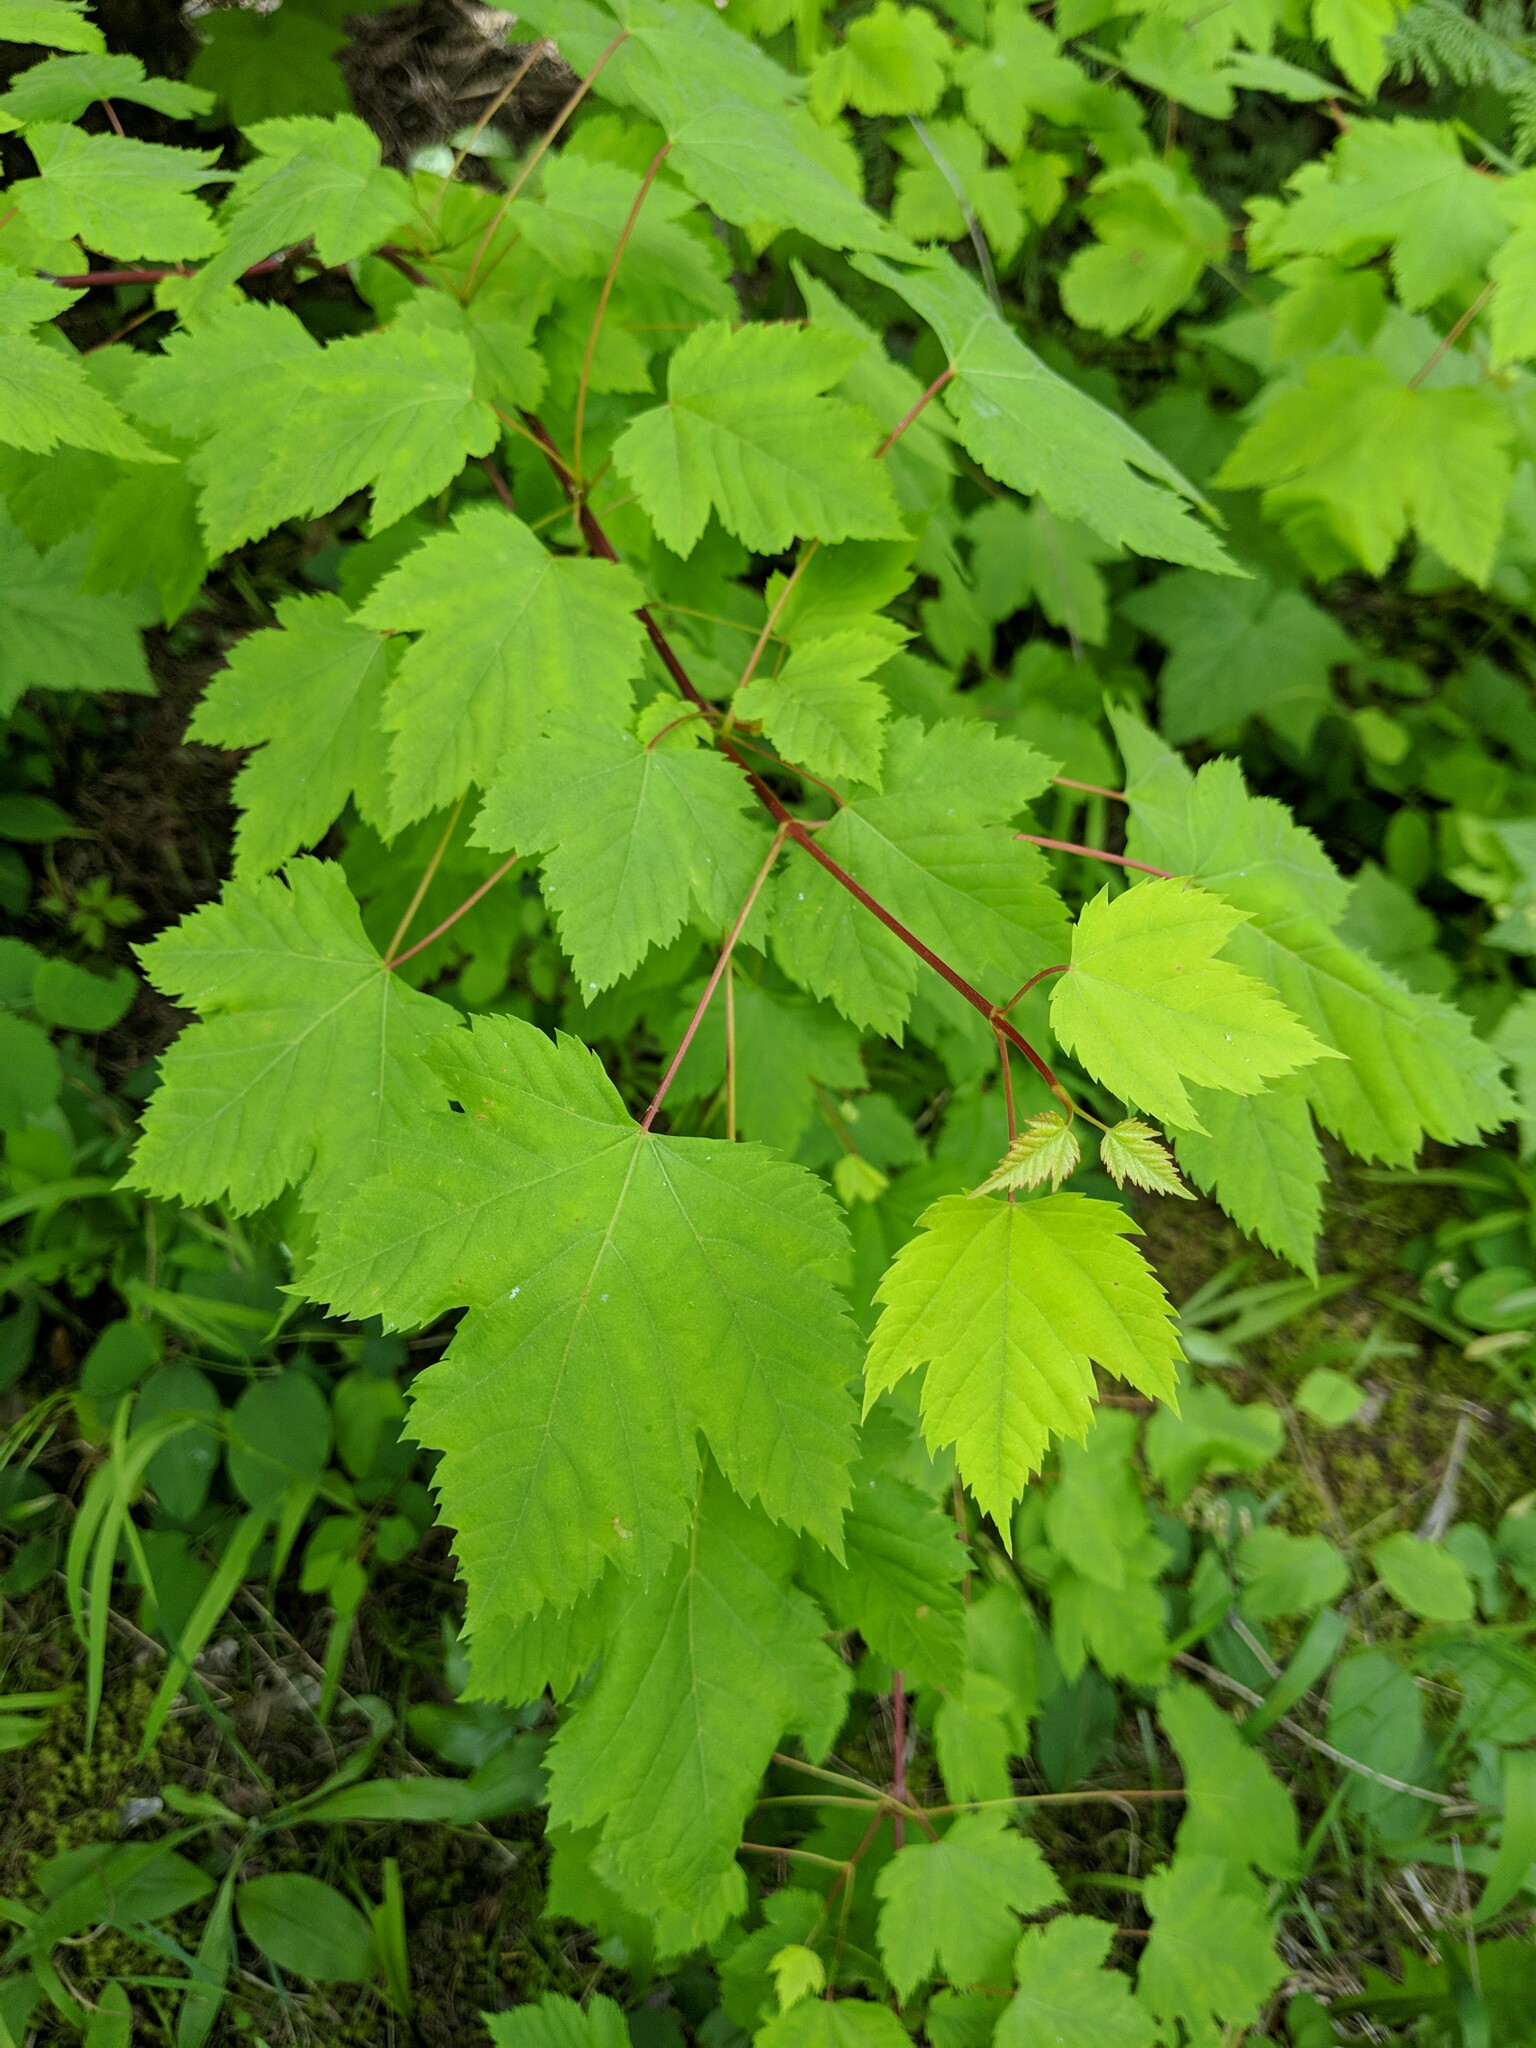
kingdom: Plantae
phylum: Tracheophyta
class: Magnoliopsida
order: Sapindales
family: Sapindaceae
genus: Acer
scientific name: Acer glabrum
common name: Rocky mountain maple
